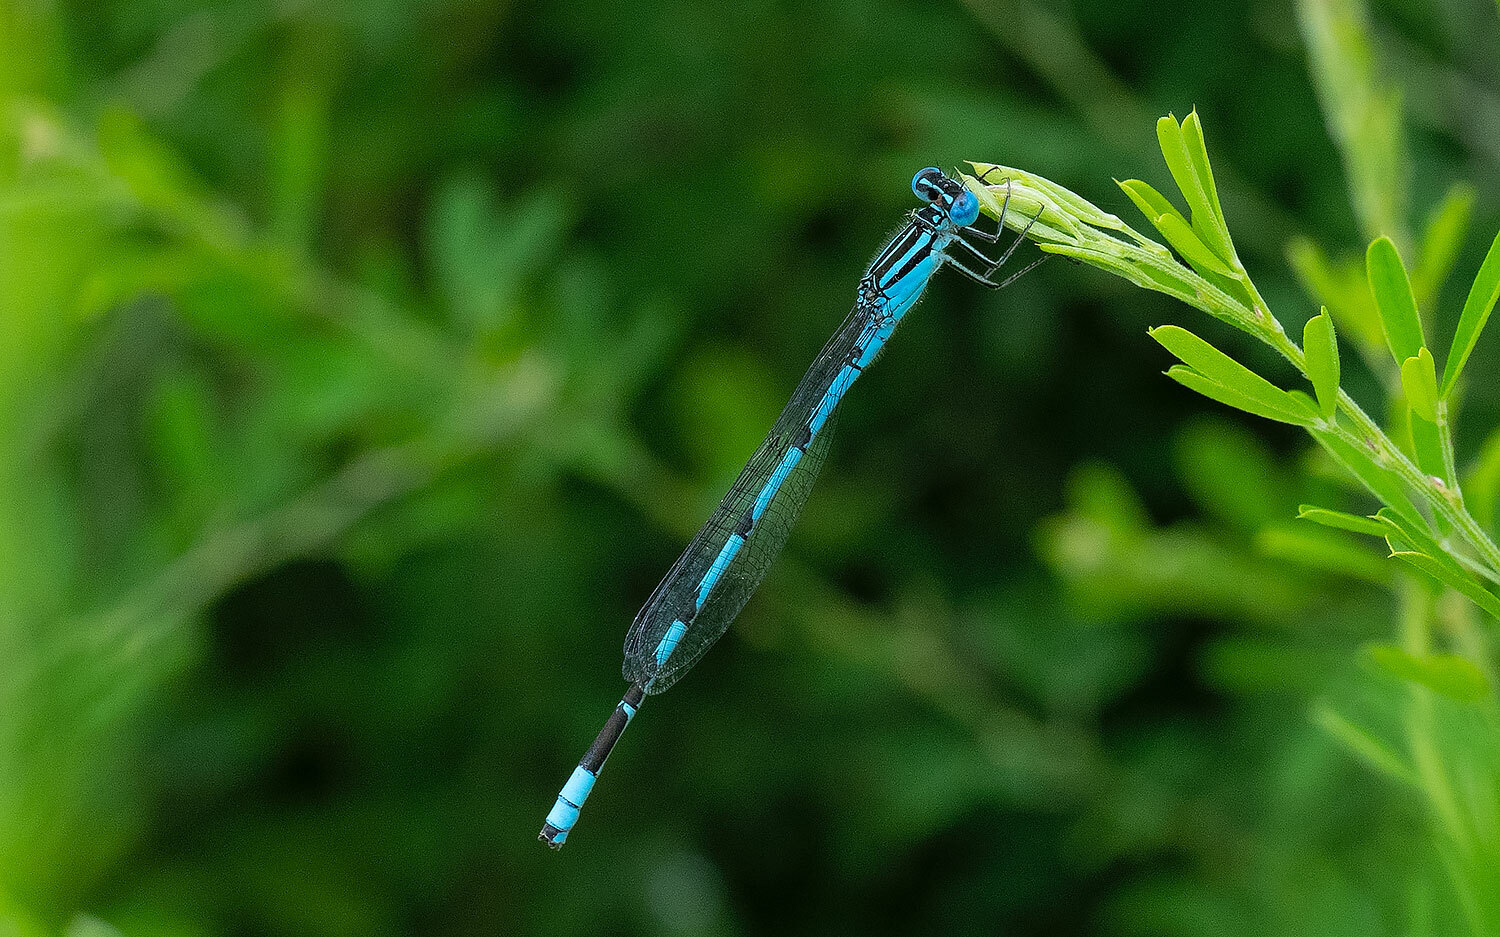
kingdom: Animalia
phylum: Arthropoda
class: Insecta
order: Odonata
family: Coenagrionidae
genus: Enallagma
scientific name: Enallagma durum
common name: Big bluet
